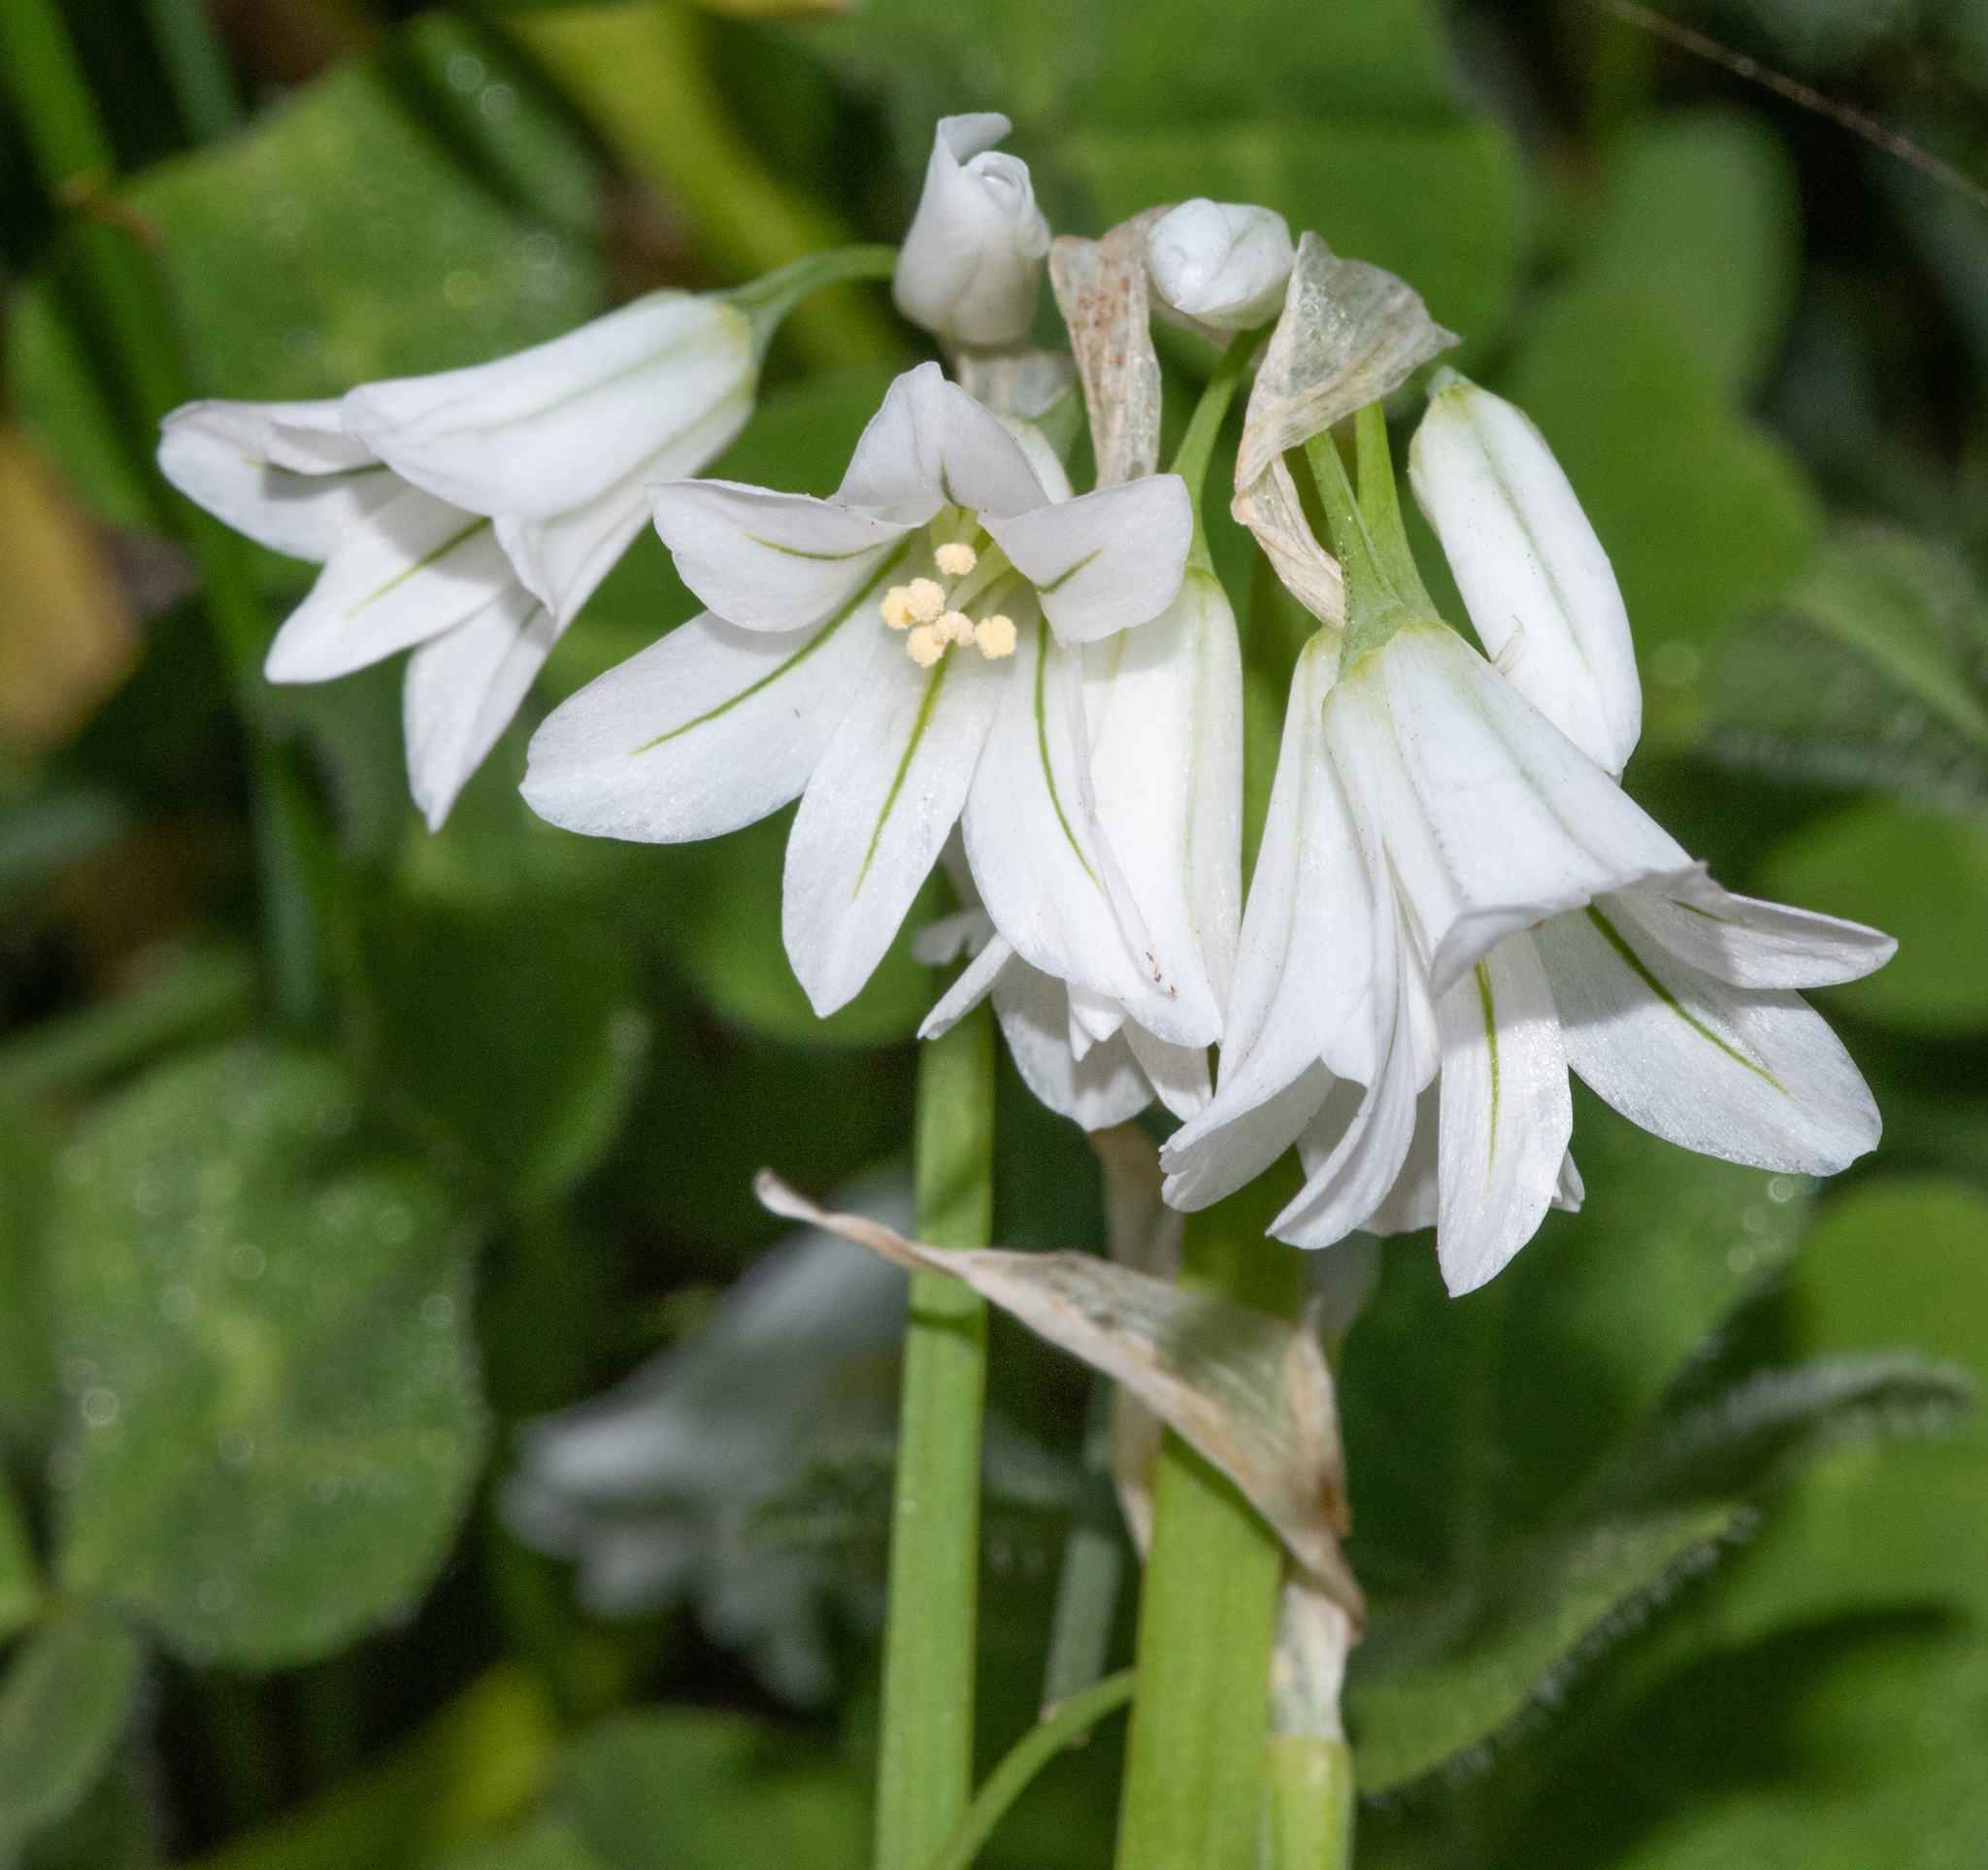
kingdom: Plantae
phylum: Tracheophyta
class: Liliopsida
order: Asparagales
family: Amaryllidaceae
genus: Allium
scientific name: Allium triquetrum
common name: Three-cornered garlic
